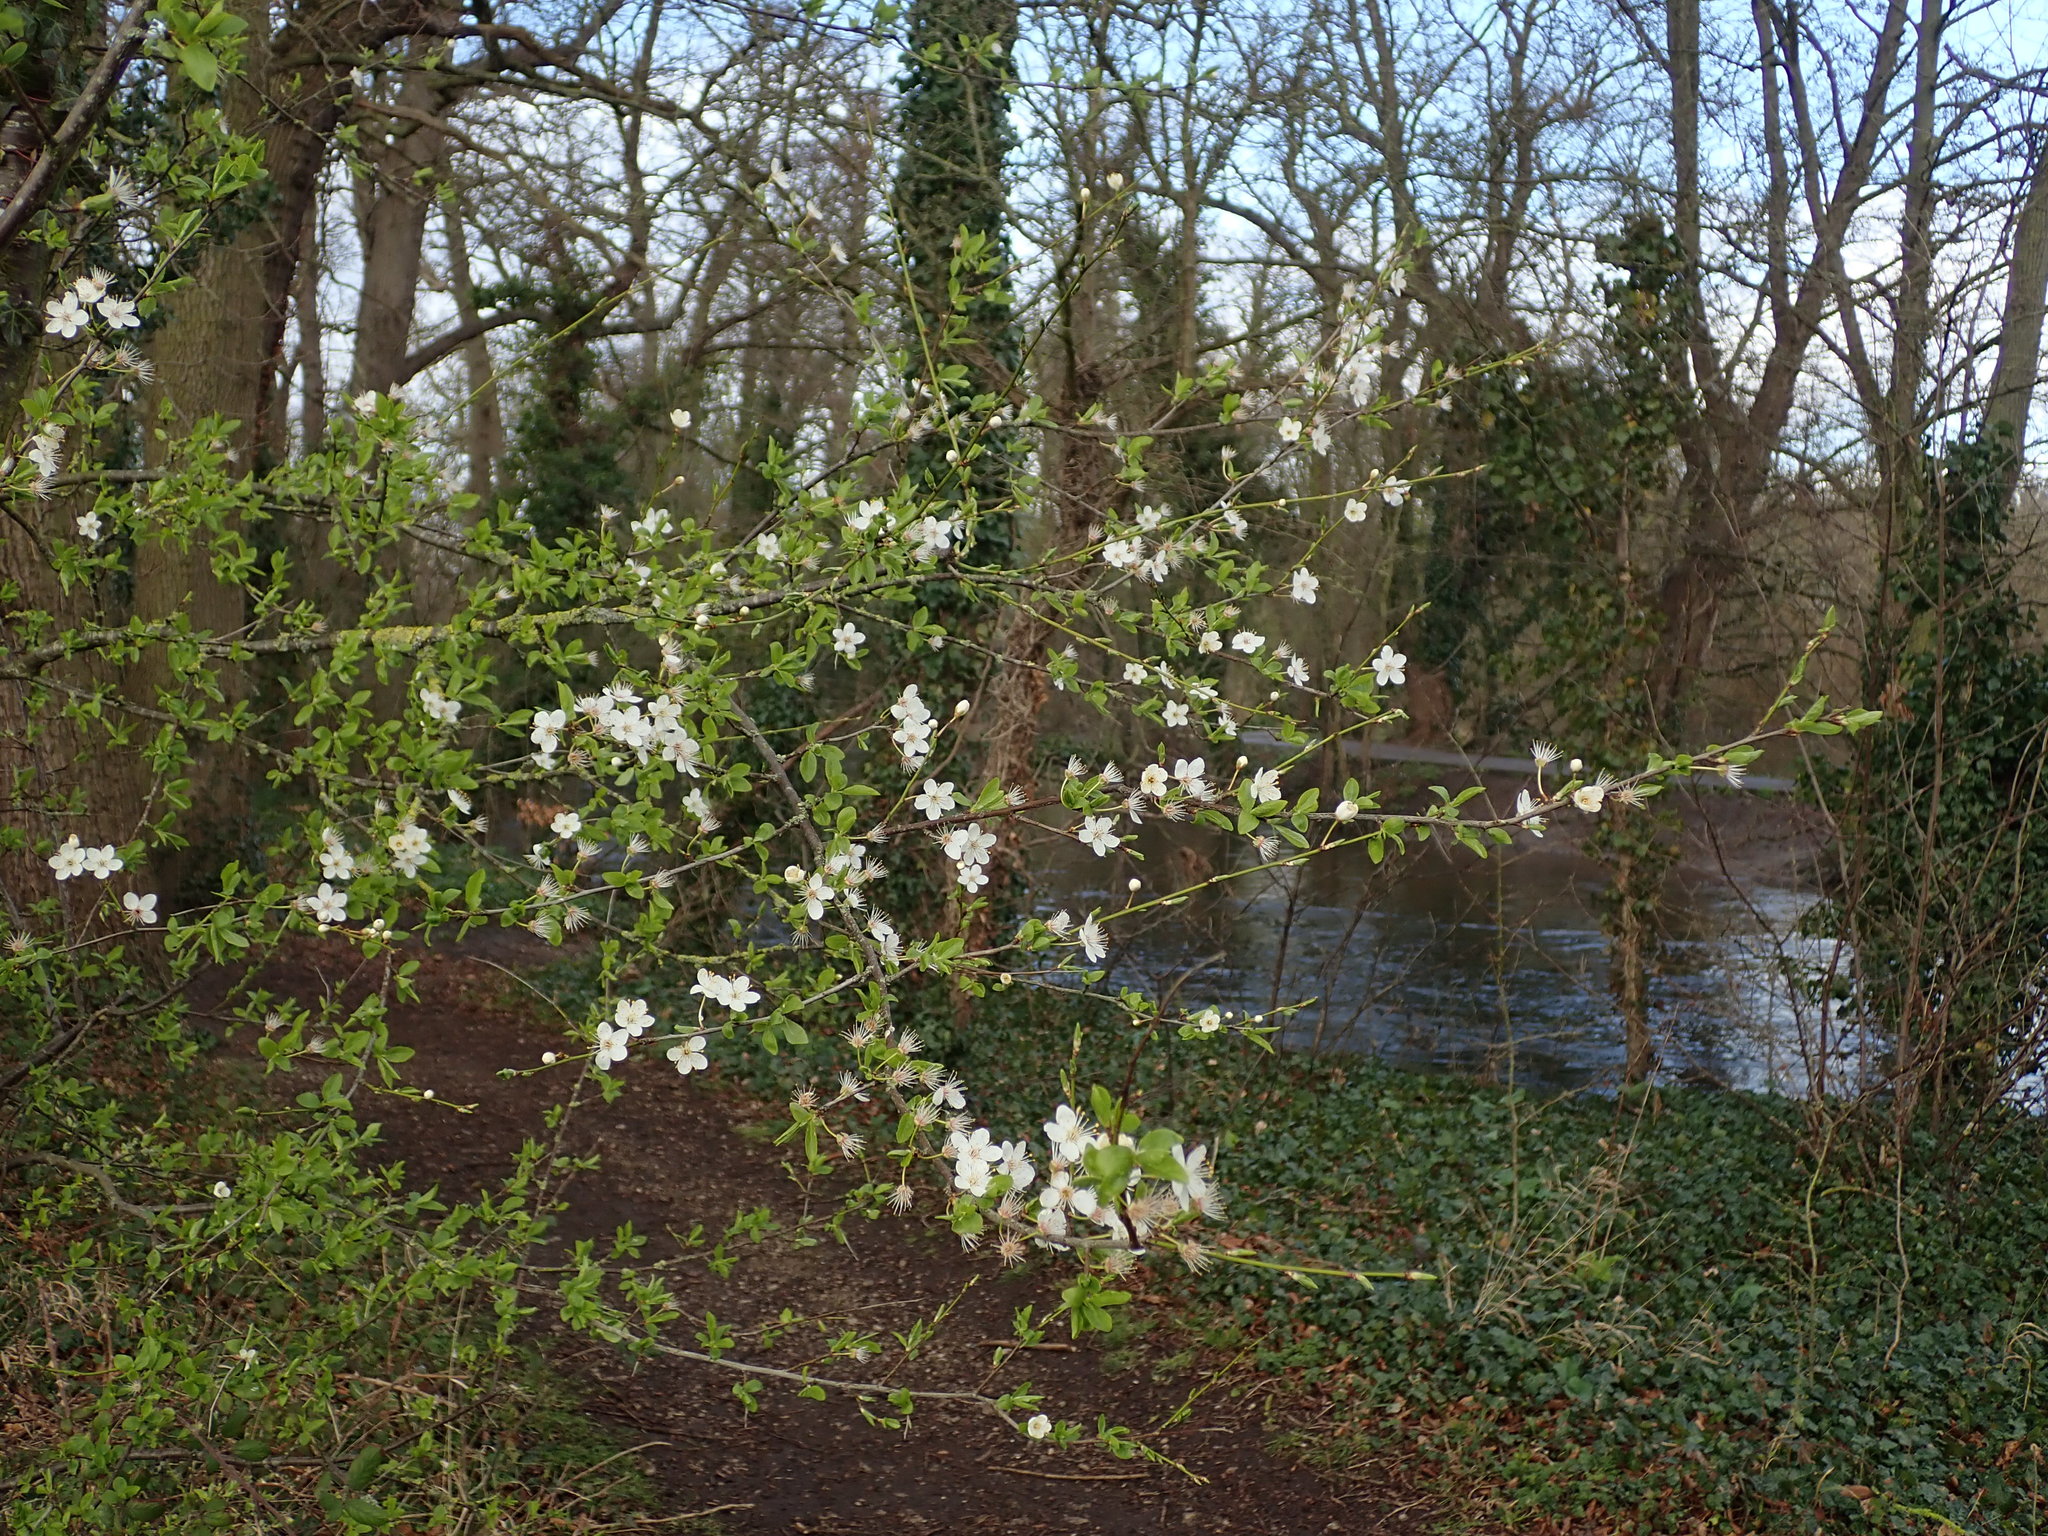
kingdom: Plantae
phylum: Tracheophyta
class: Magnoliopsida
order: Rosales
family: Rosaceae
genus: Prunus
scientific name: Prunus cerasifera
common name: Cherry plum
